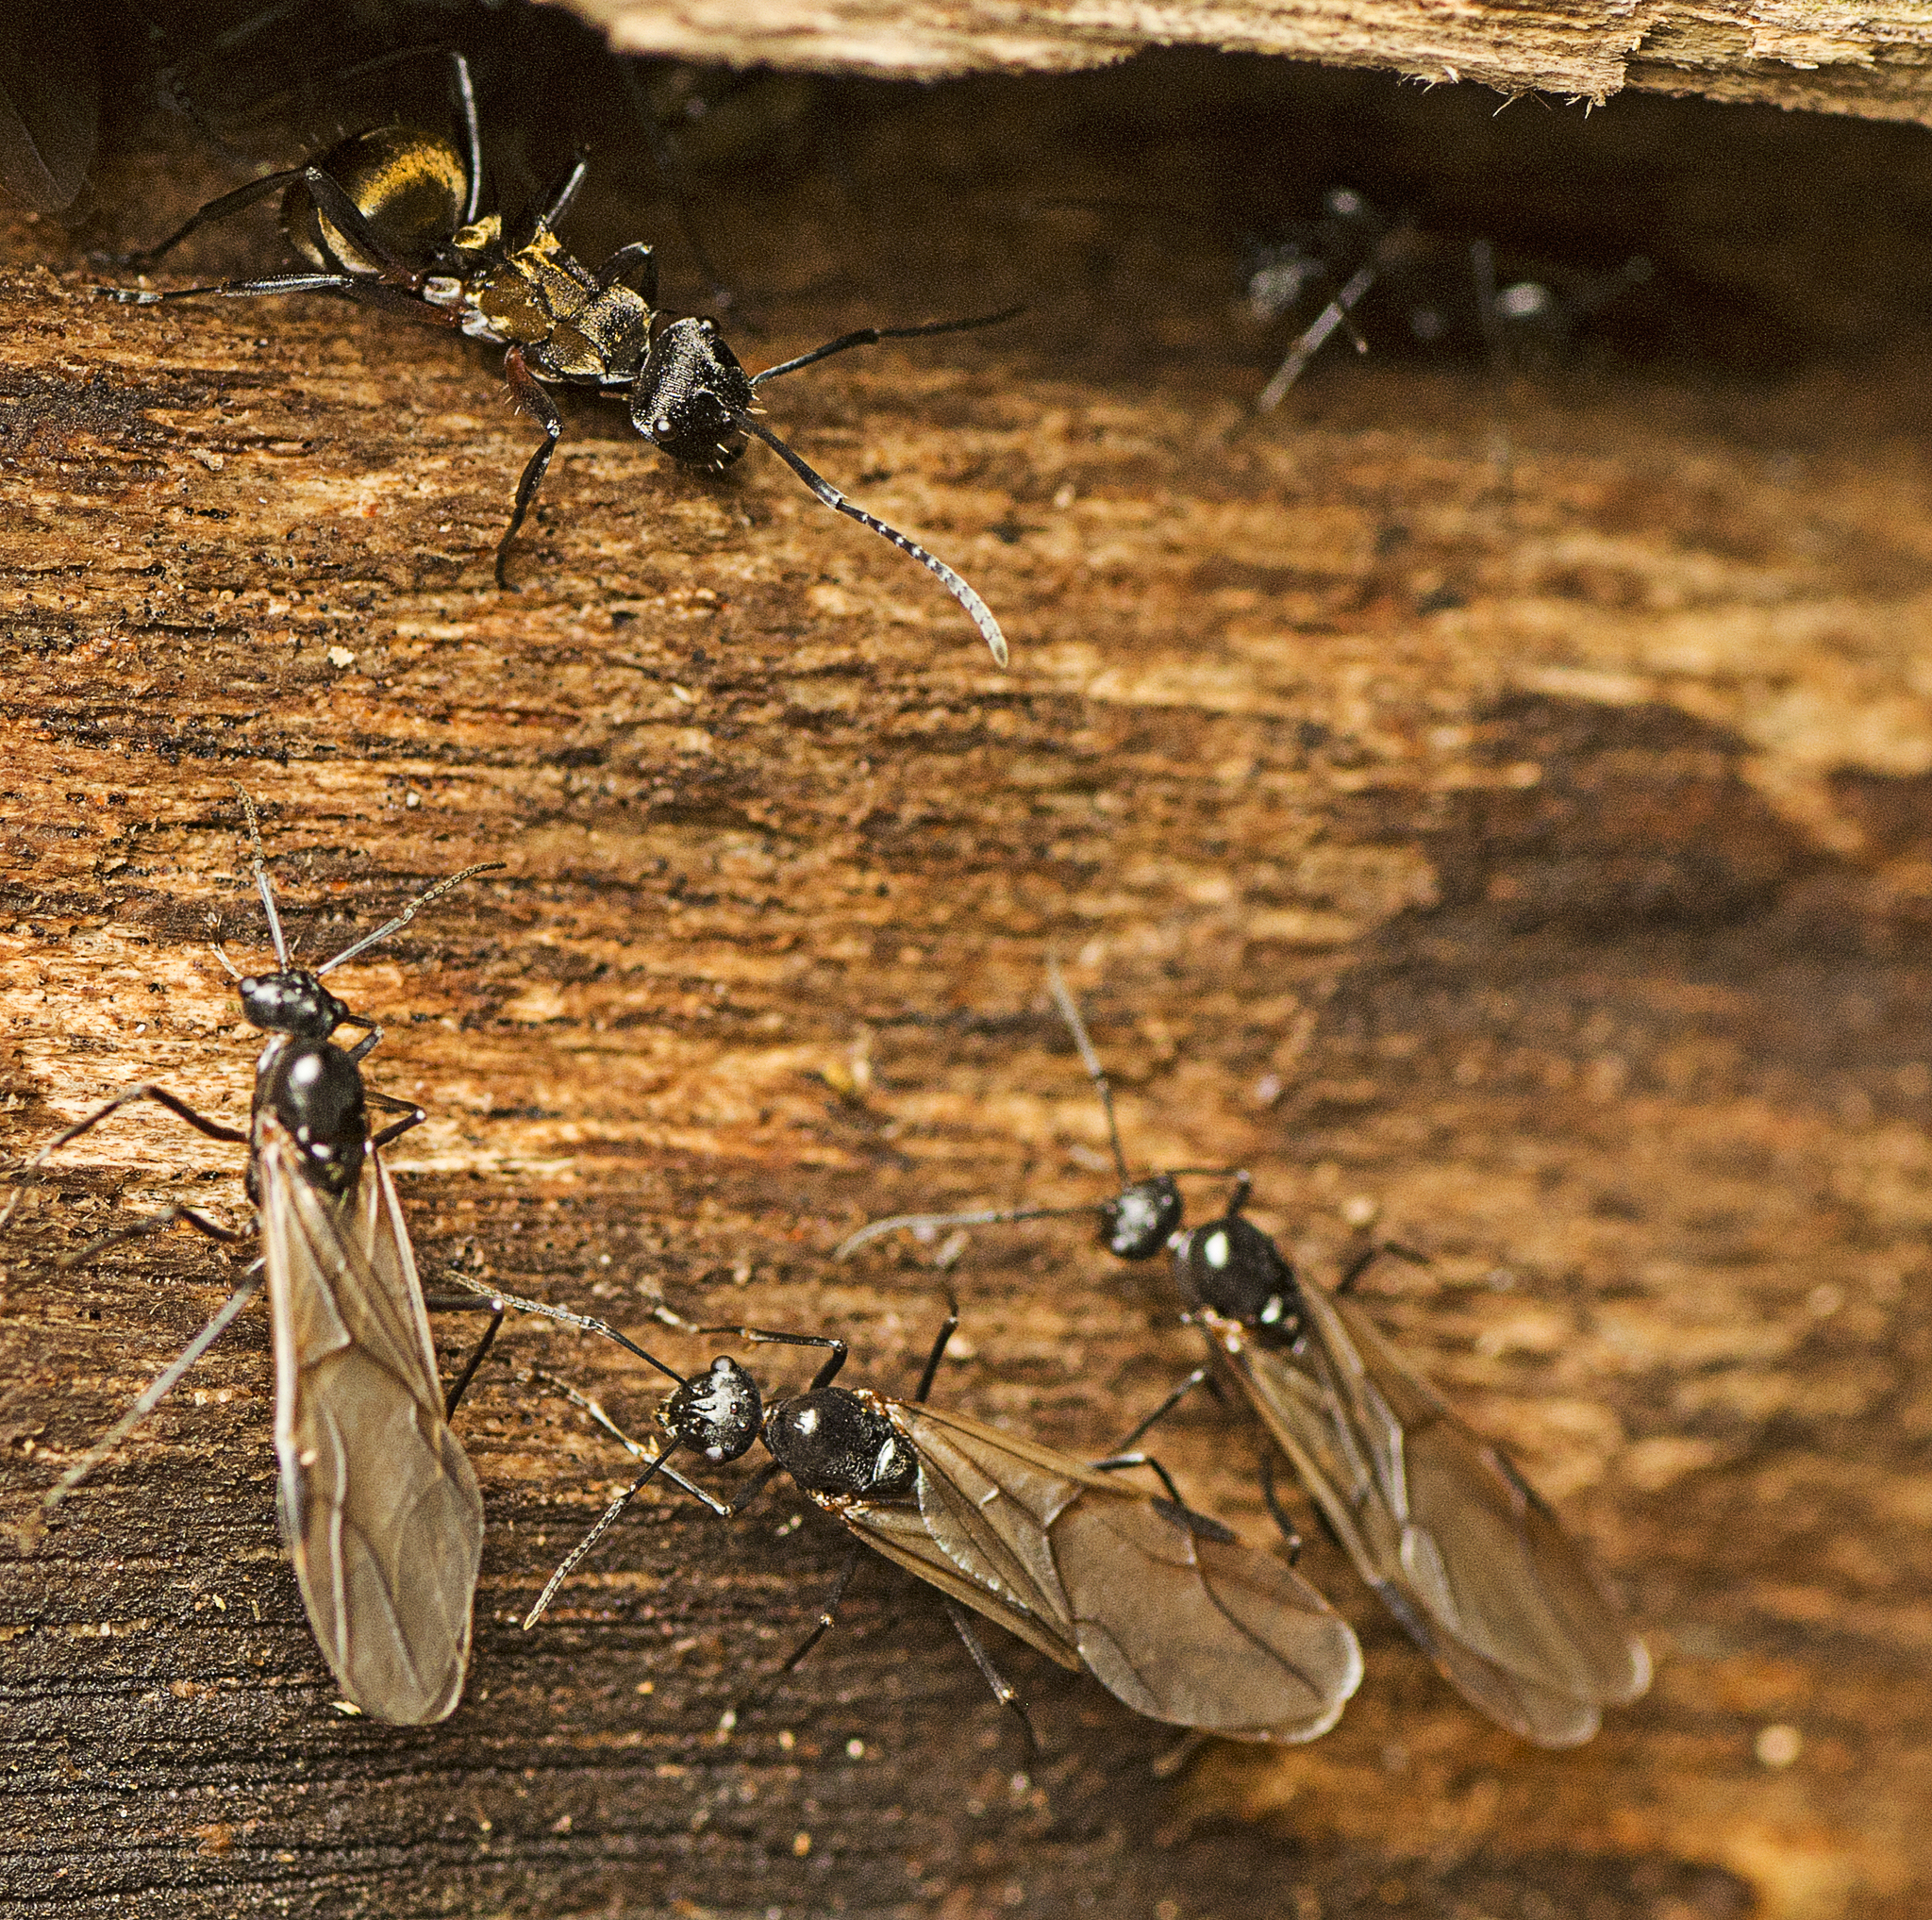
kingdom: Animalia
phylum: Arthropoda
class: Insecta
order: Hymenoptera
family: Formicidae
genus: Polyrhachis
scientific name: Polyrhachis rufifemur
